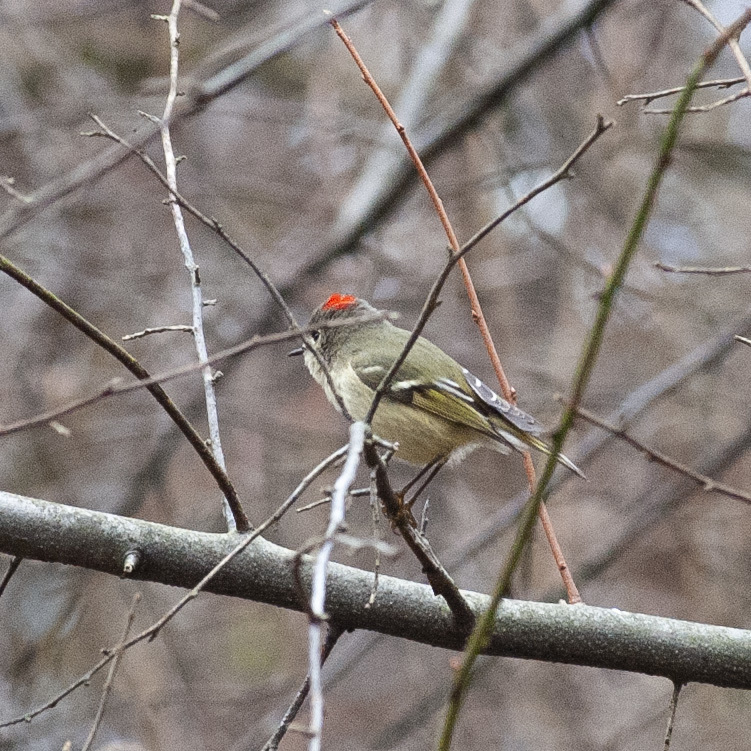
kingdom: Animalia
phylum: Chordata
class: Aves
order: Passeriformes
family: Regulidae
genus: Regulus
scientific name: Regulus calendula
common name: Ruby-crowned kinglet
